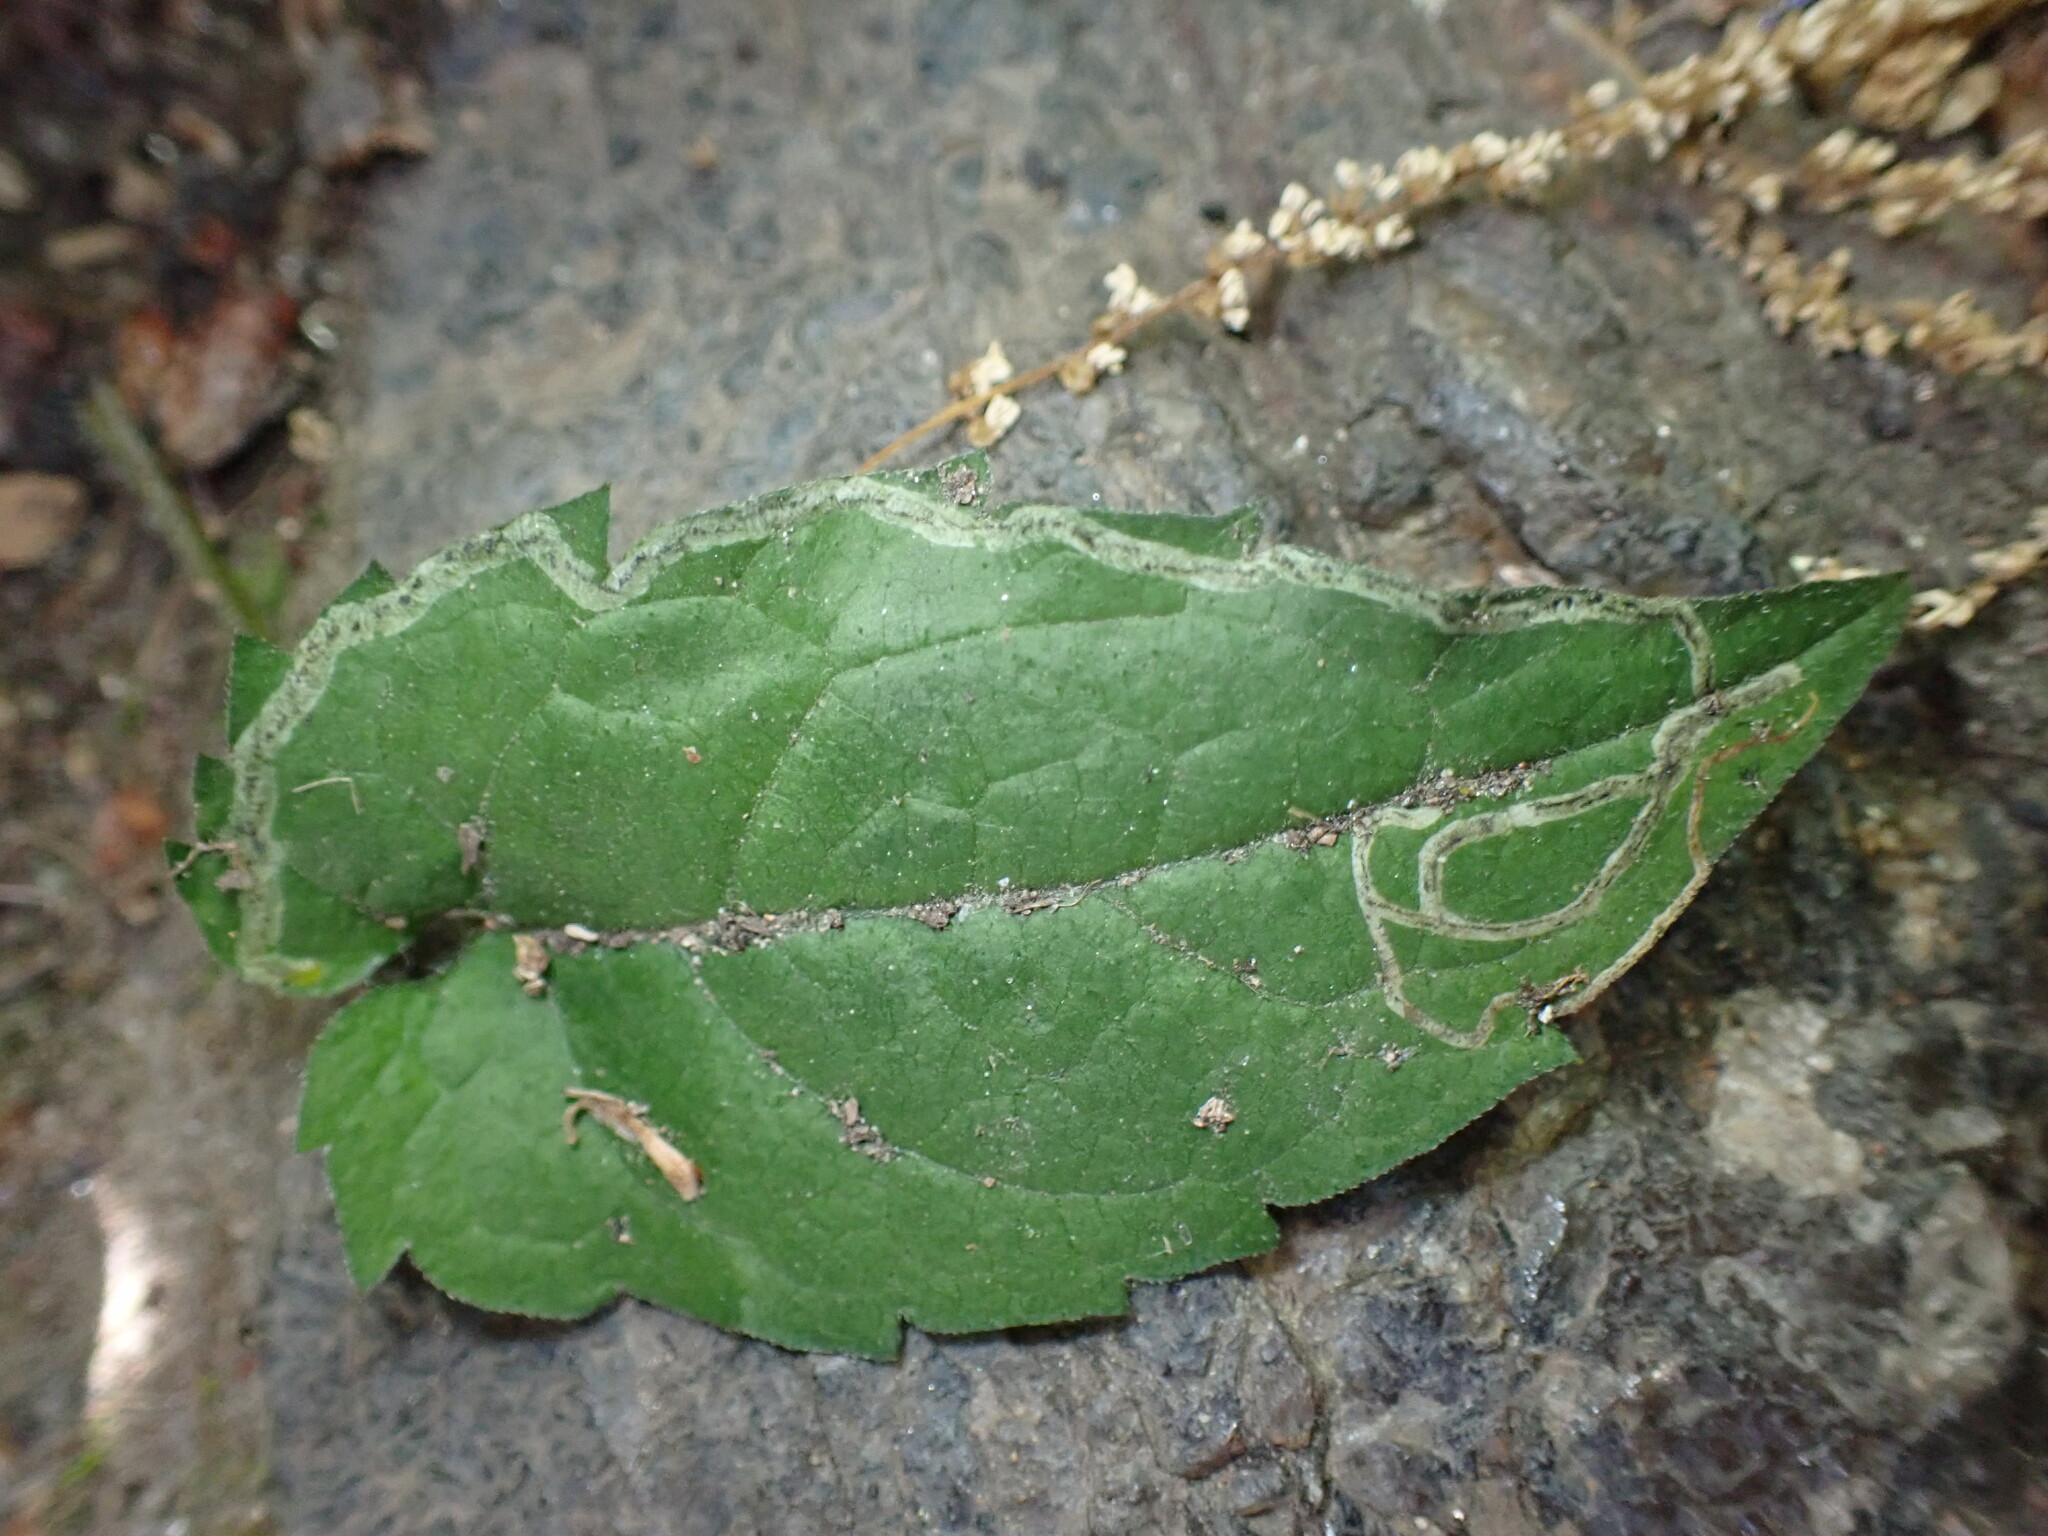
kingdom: Animalia
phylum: Arthropoda
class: Insecta
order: Diptera
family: Agromyzidae
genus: Liriomyza
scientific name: Liriomyza eupatorii
